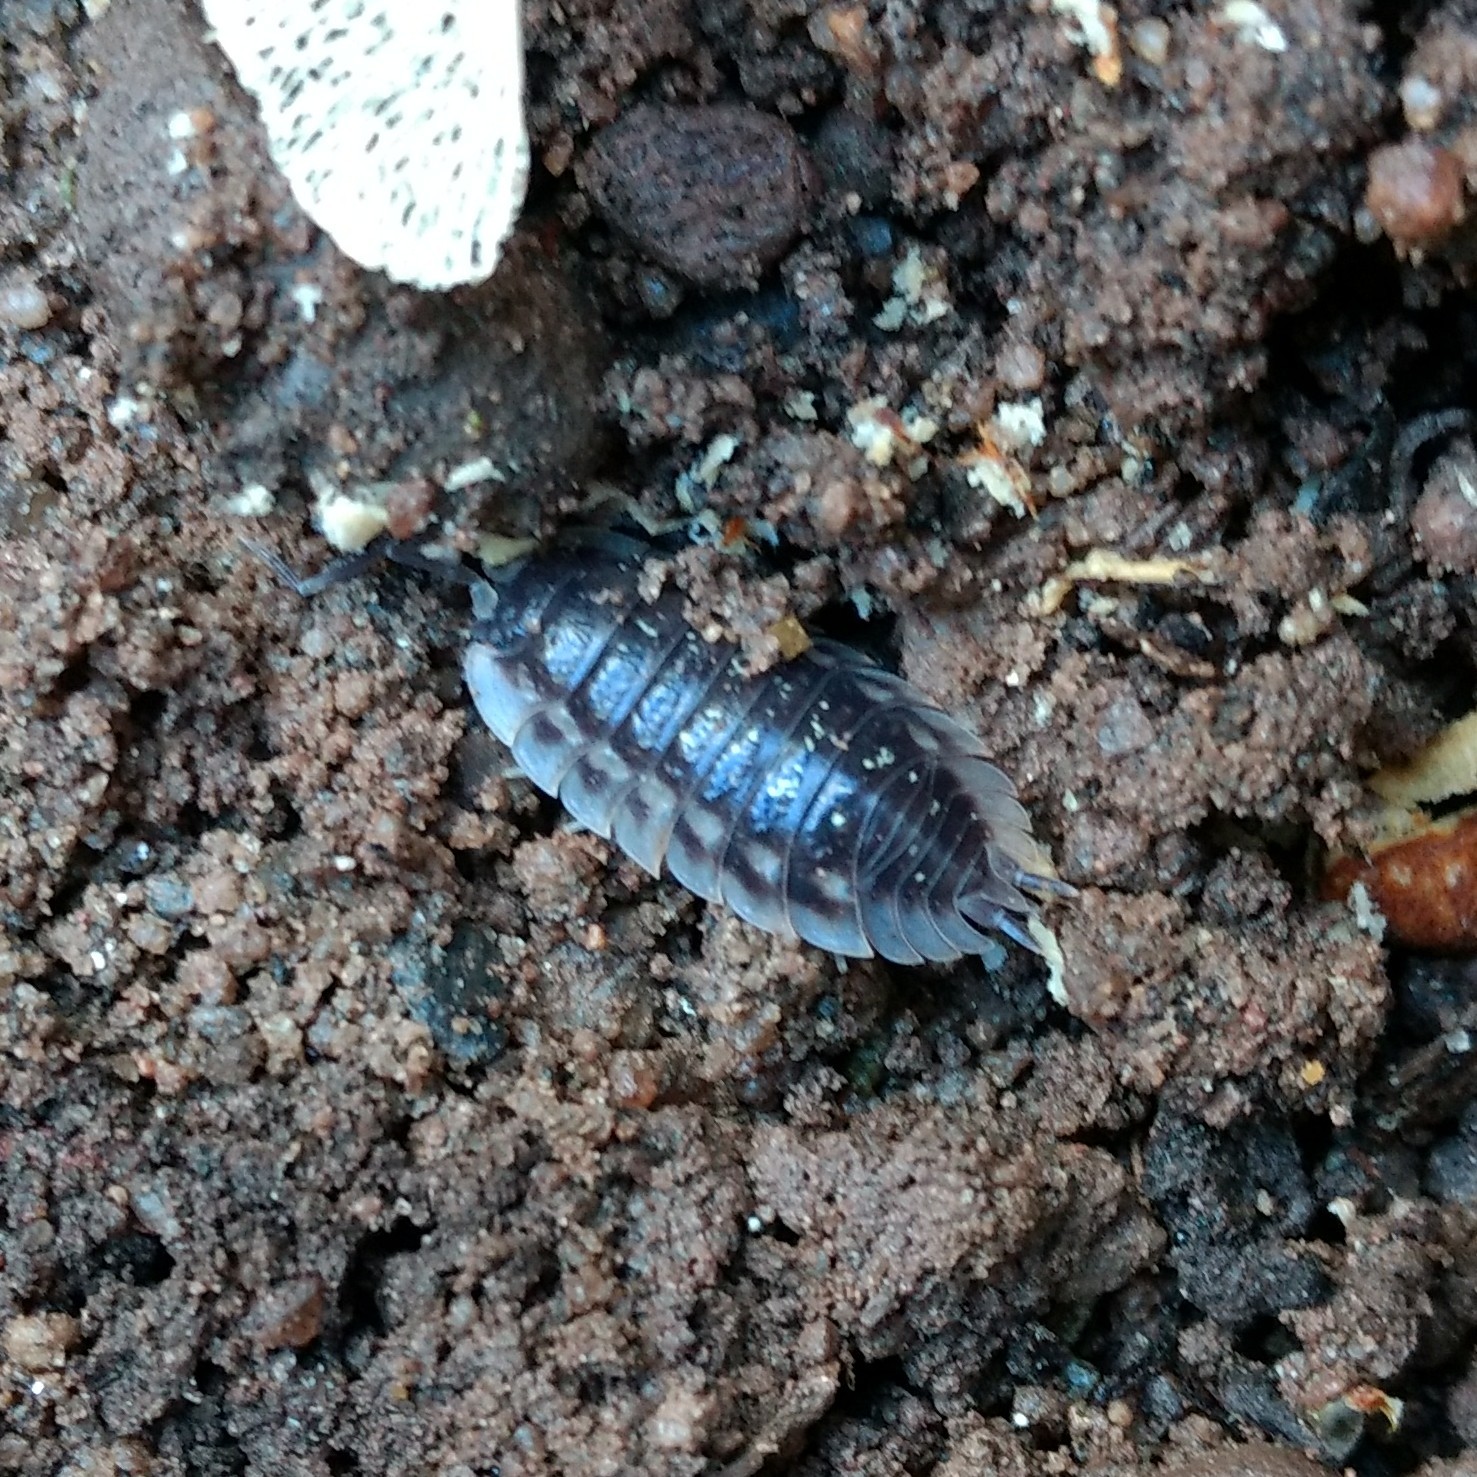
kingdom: Animalia
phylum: Arthropoda
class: Malacostraca
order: Isopoda
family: Oniscidae
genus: Oniscus
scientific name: Oniscus asellus
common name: Common shiny woodlouse
